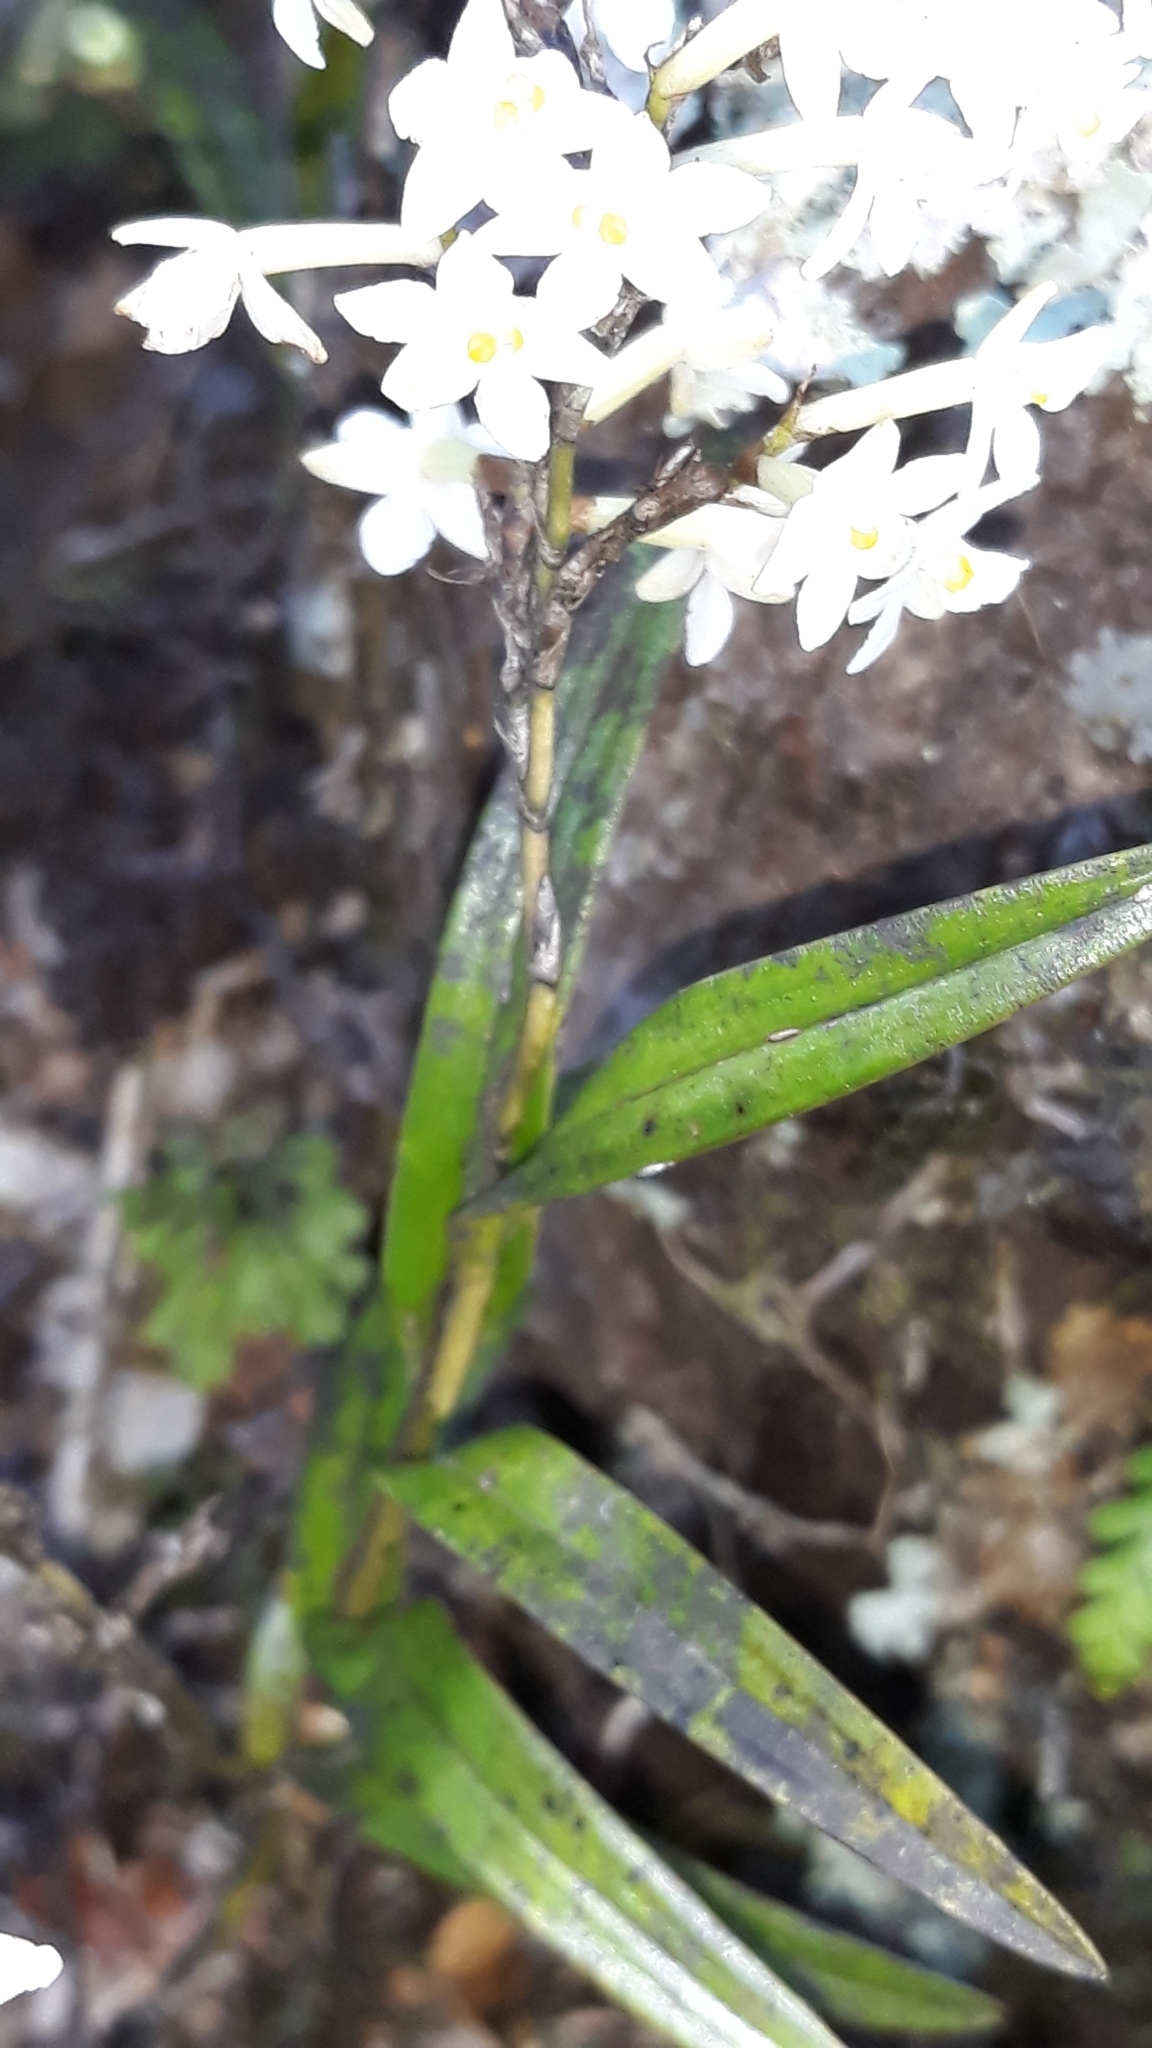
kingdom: Plantae
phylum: Tracheophyta
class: Liliopsida
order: Asparagales
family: Orchidaceae
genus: Earina
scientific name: Earina autumnalis
